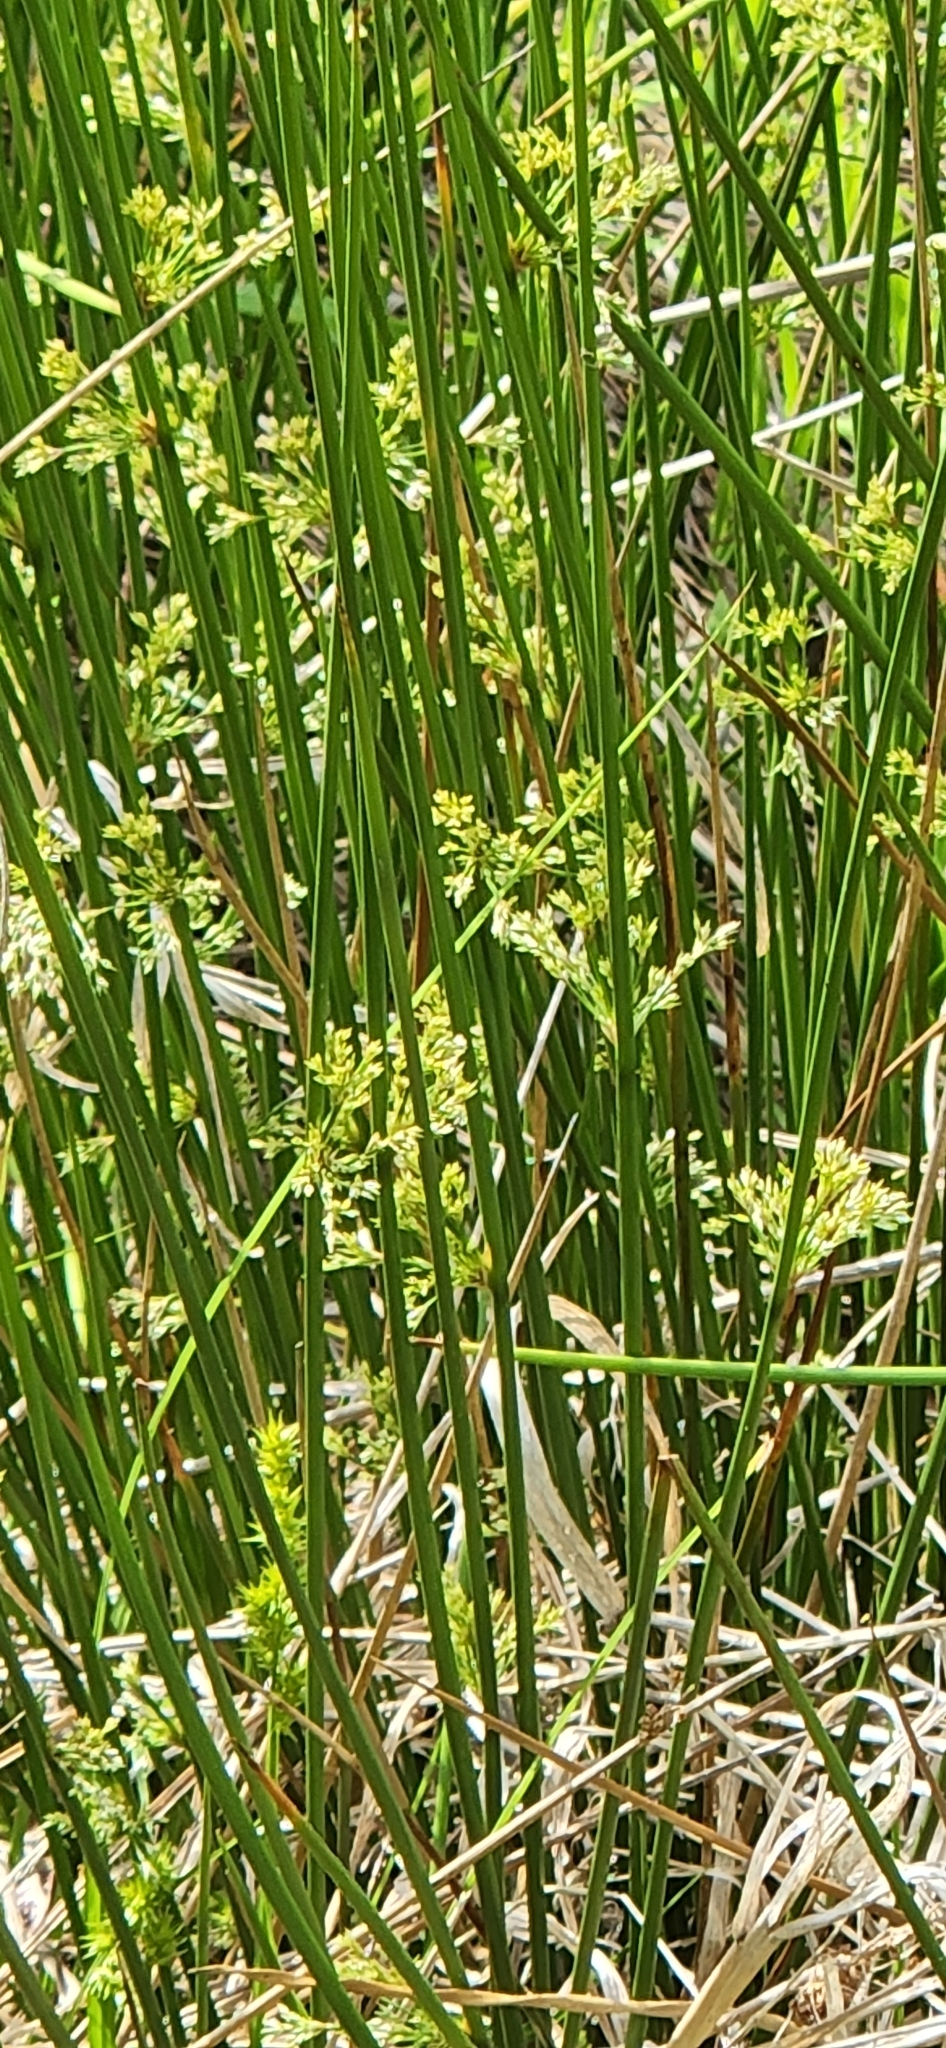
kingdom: Plantae
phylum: Tracheophyta
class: Liliopsida
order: Poales
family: Juncaceae
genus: Juncus
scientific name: Juncus effusus
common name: Soft rush
